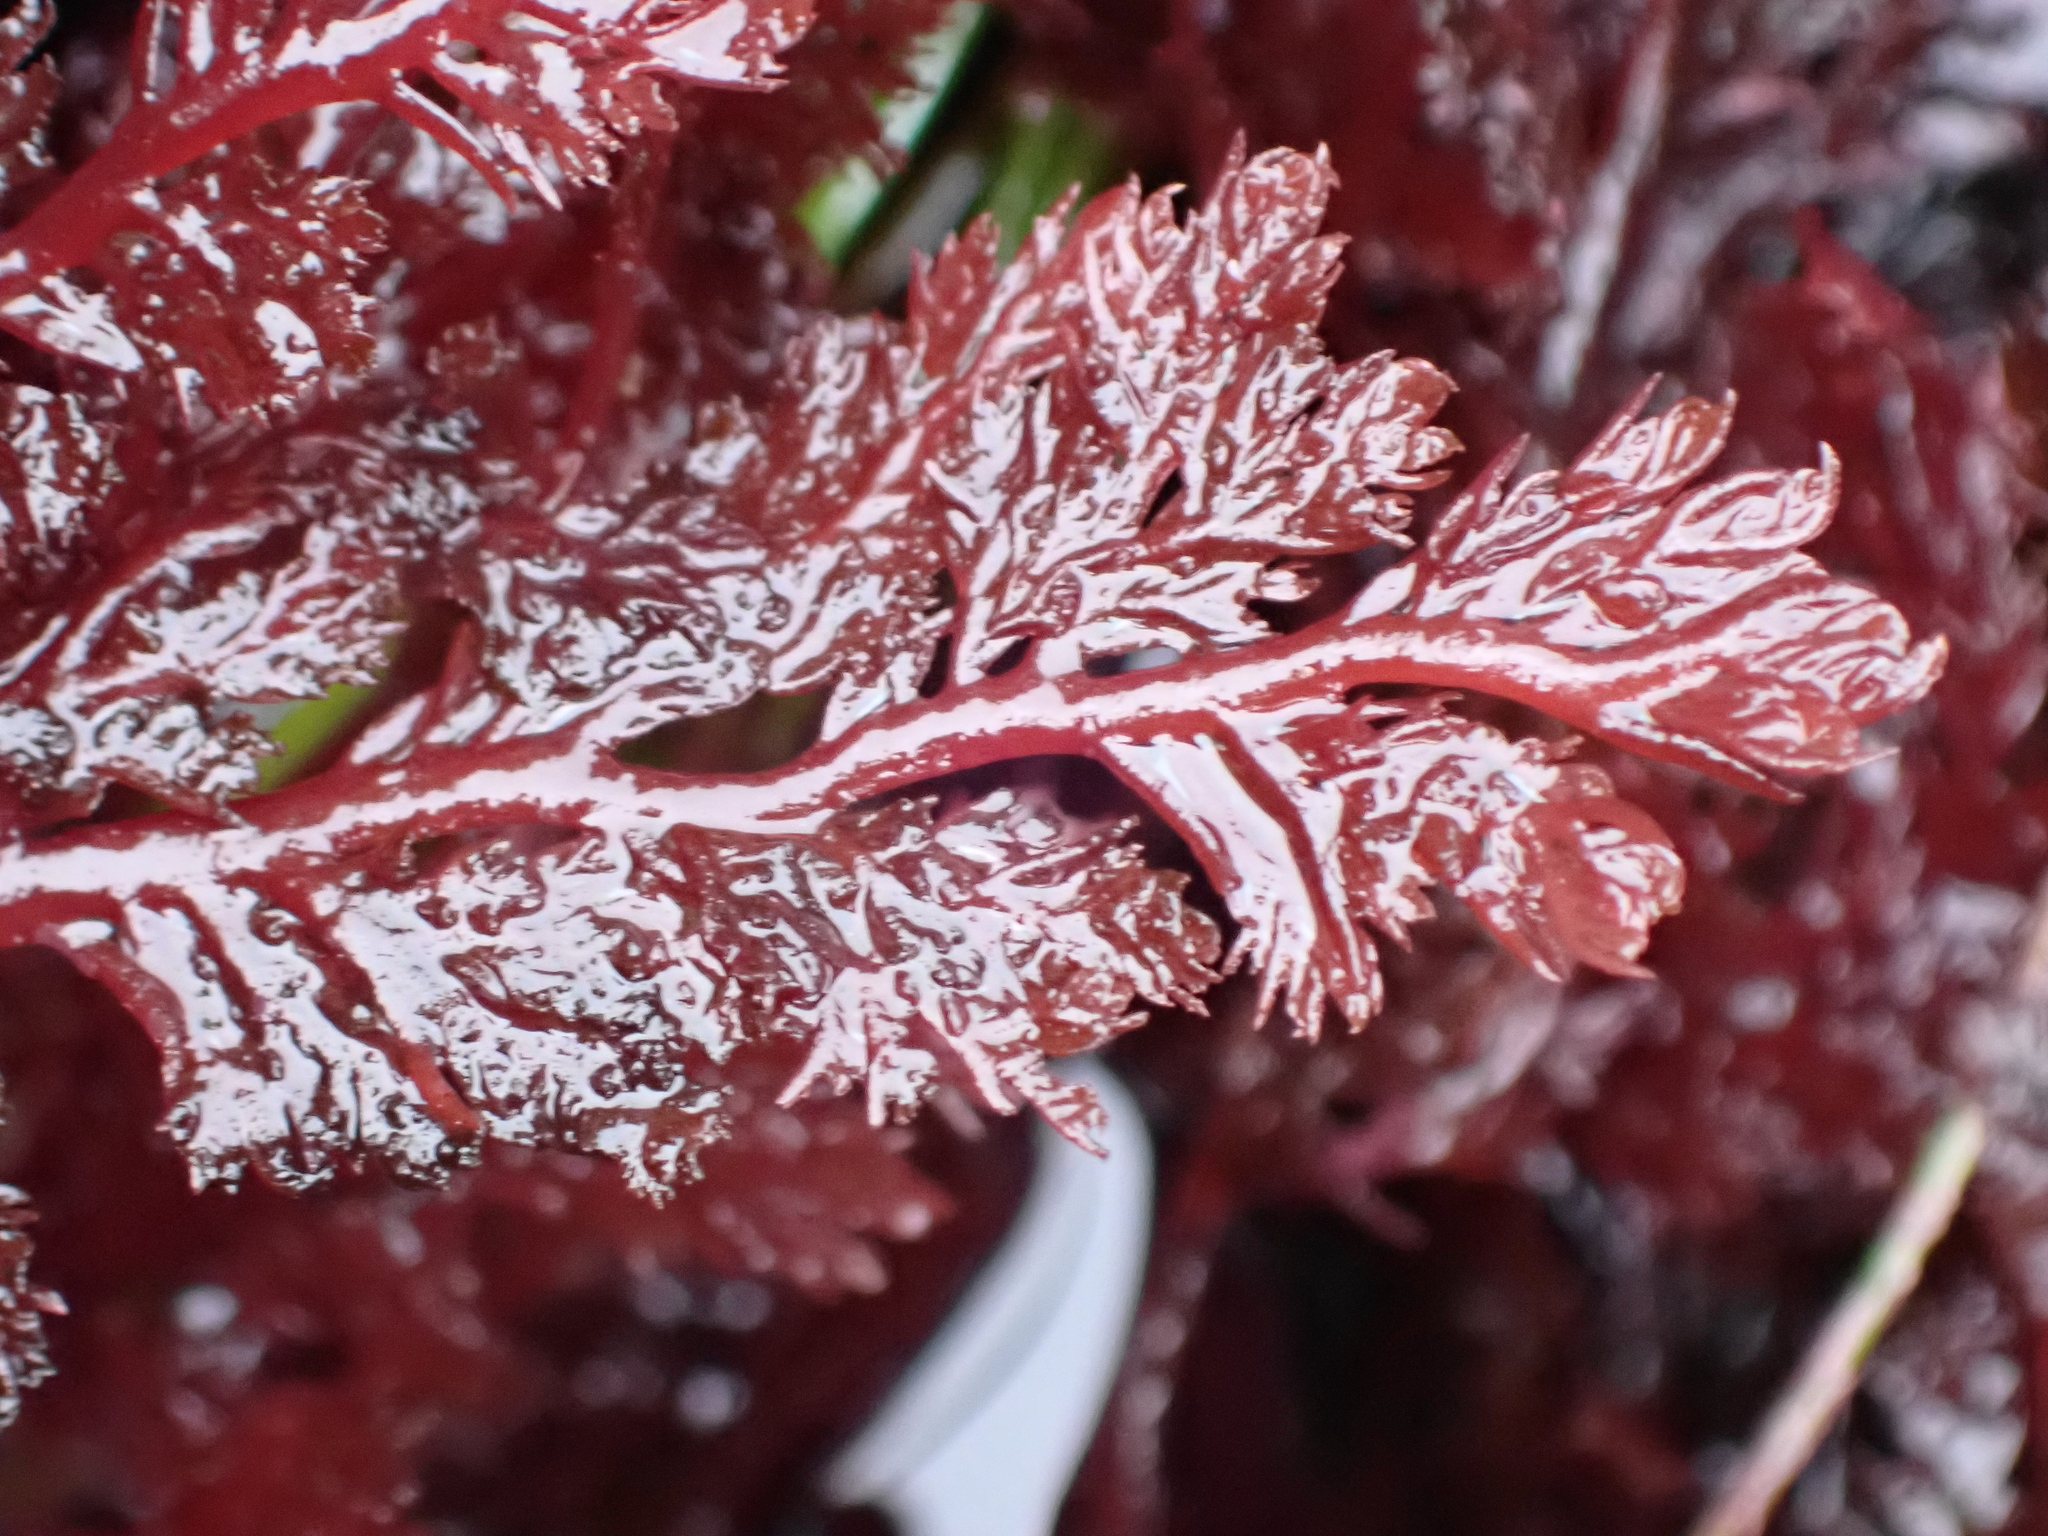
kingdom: Plantae
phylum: Rhodophyta
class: Florideophyceae
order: Plocamiales
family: Plocamiaceae
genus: Plocamium
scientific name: Plocamium cartilagineum
